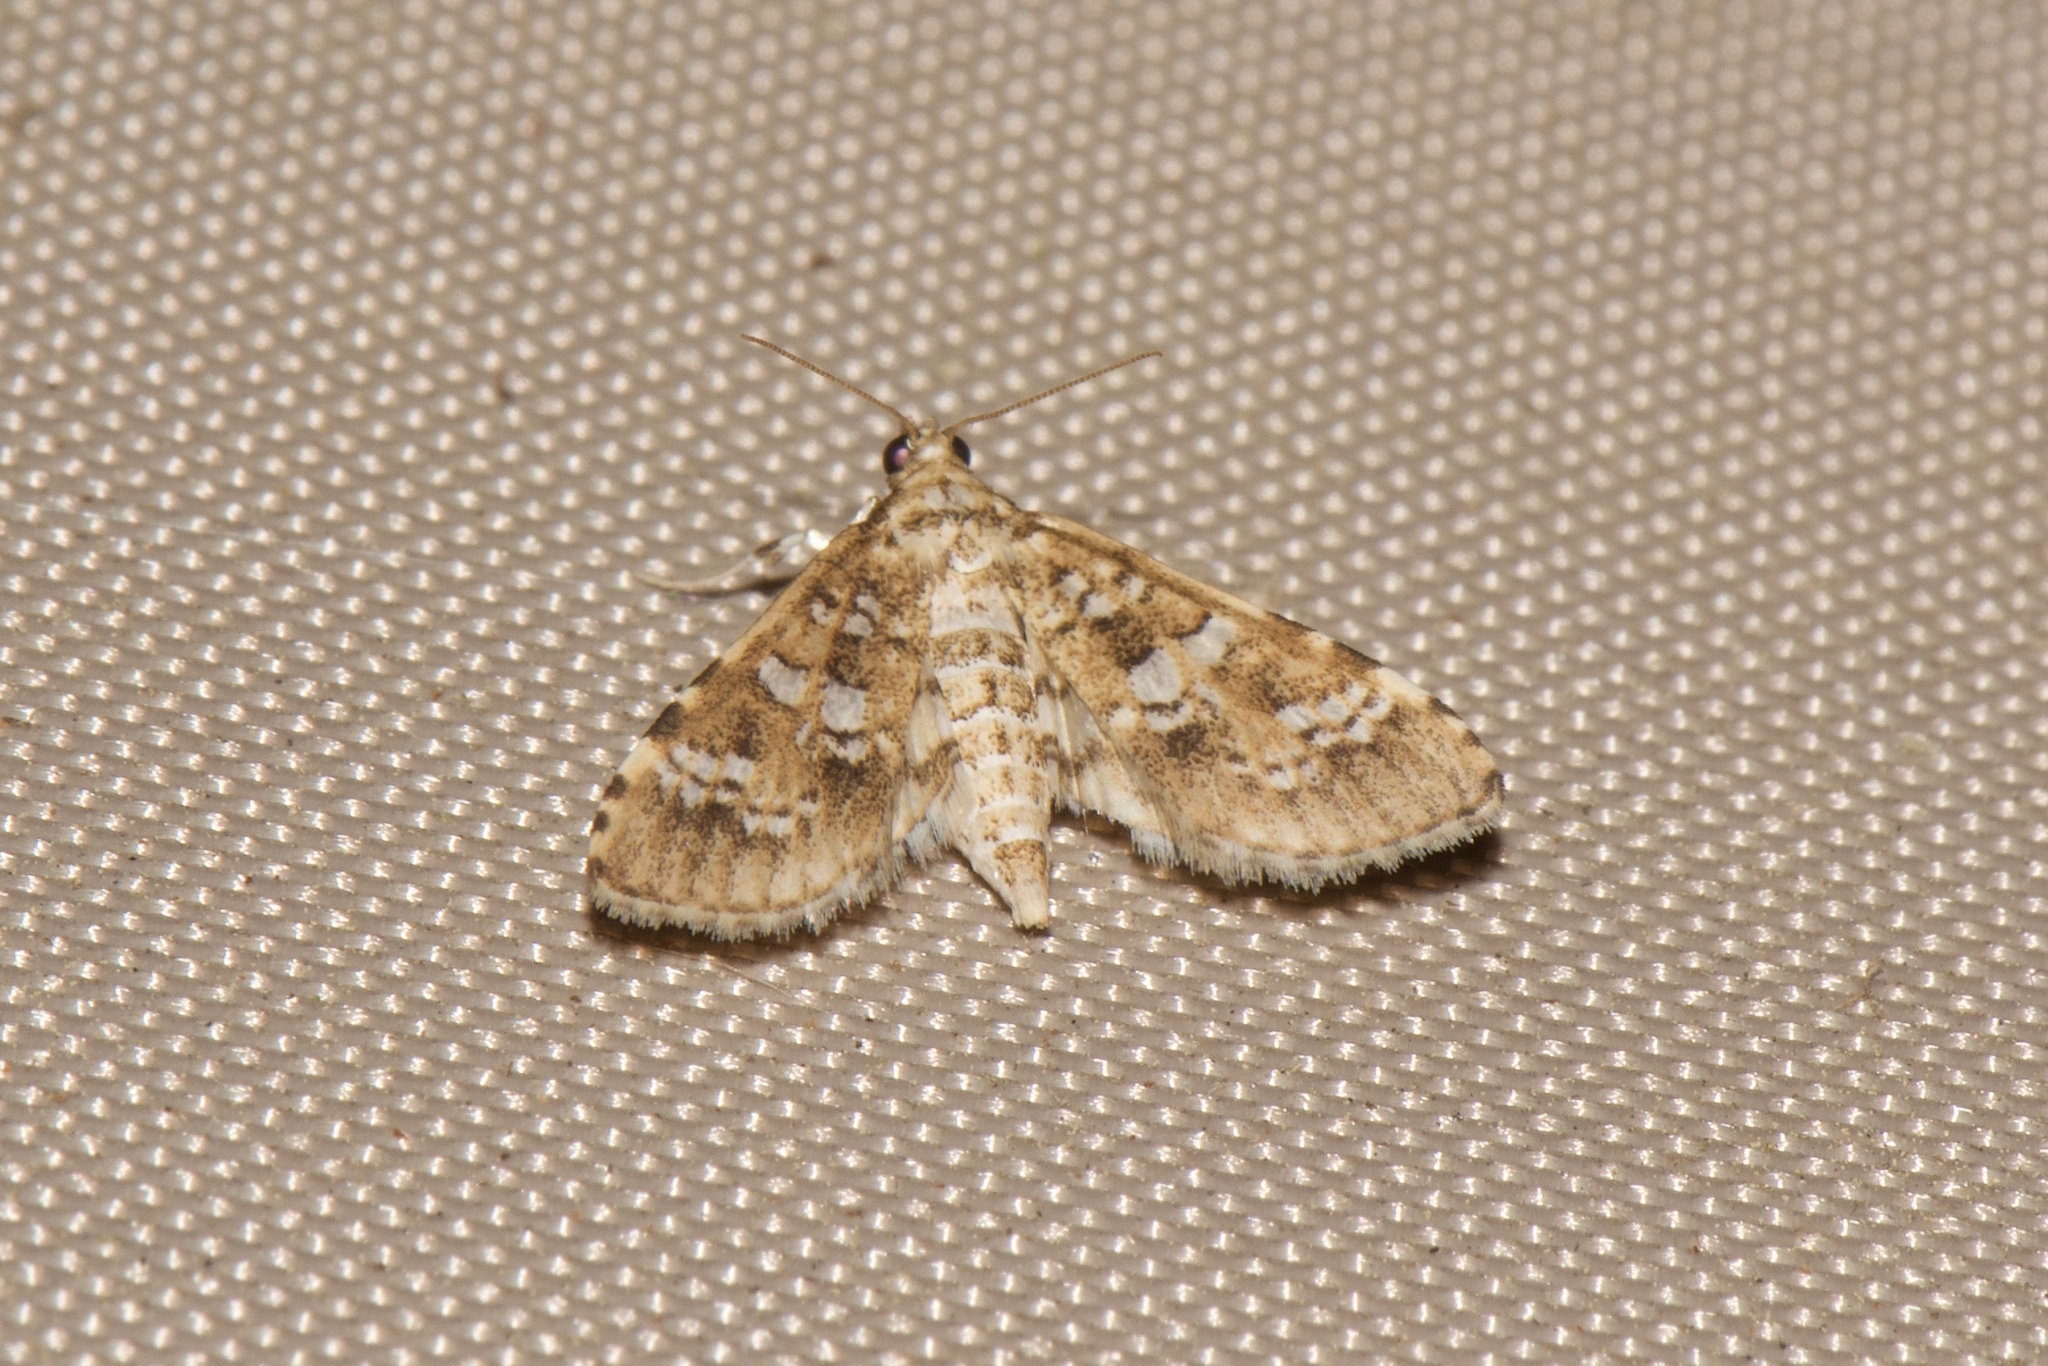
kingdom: Animalia
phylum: Arthropoda
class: Insecta
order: Lepidoptera
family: Crambidae
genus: Samea
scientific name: Samea multiplicalis
